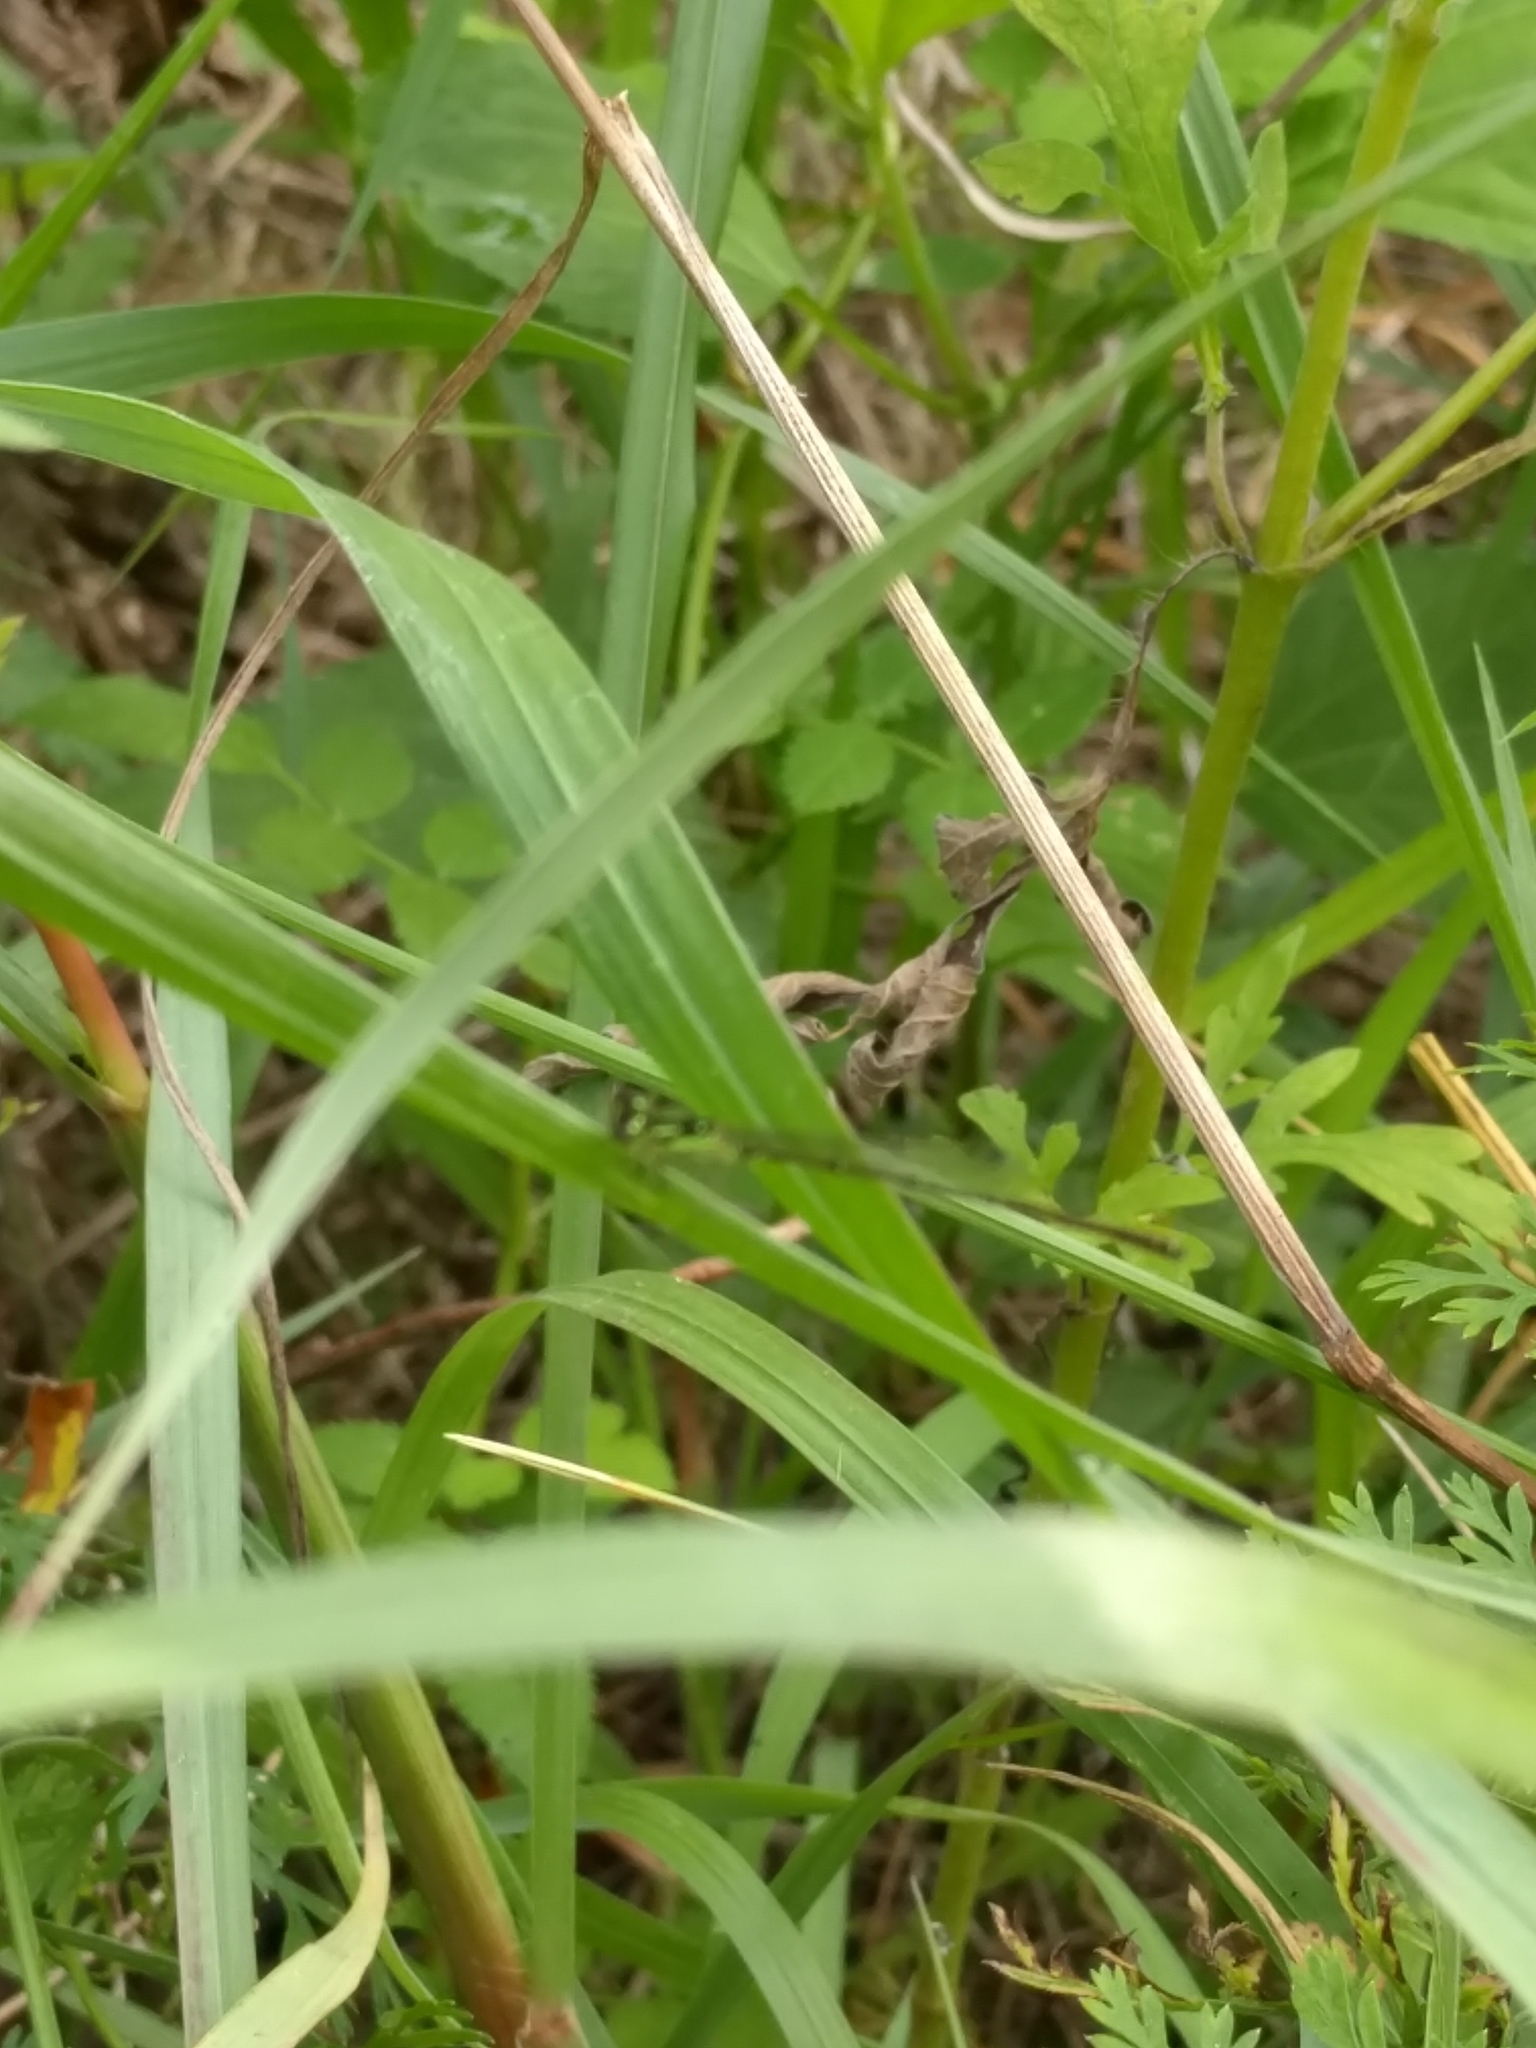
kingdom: Animalia
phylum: Arthropoda
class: Insecta
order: Odonata
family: Coenagrionidae
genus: Ischnura
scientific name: Ischnura posita
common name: Fragile forktail
